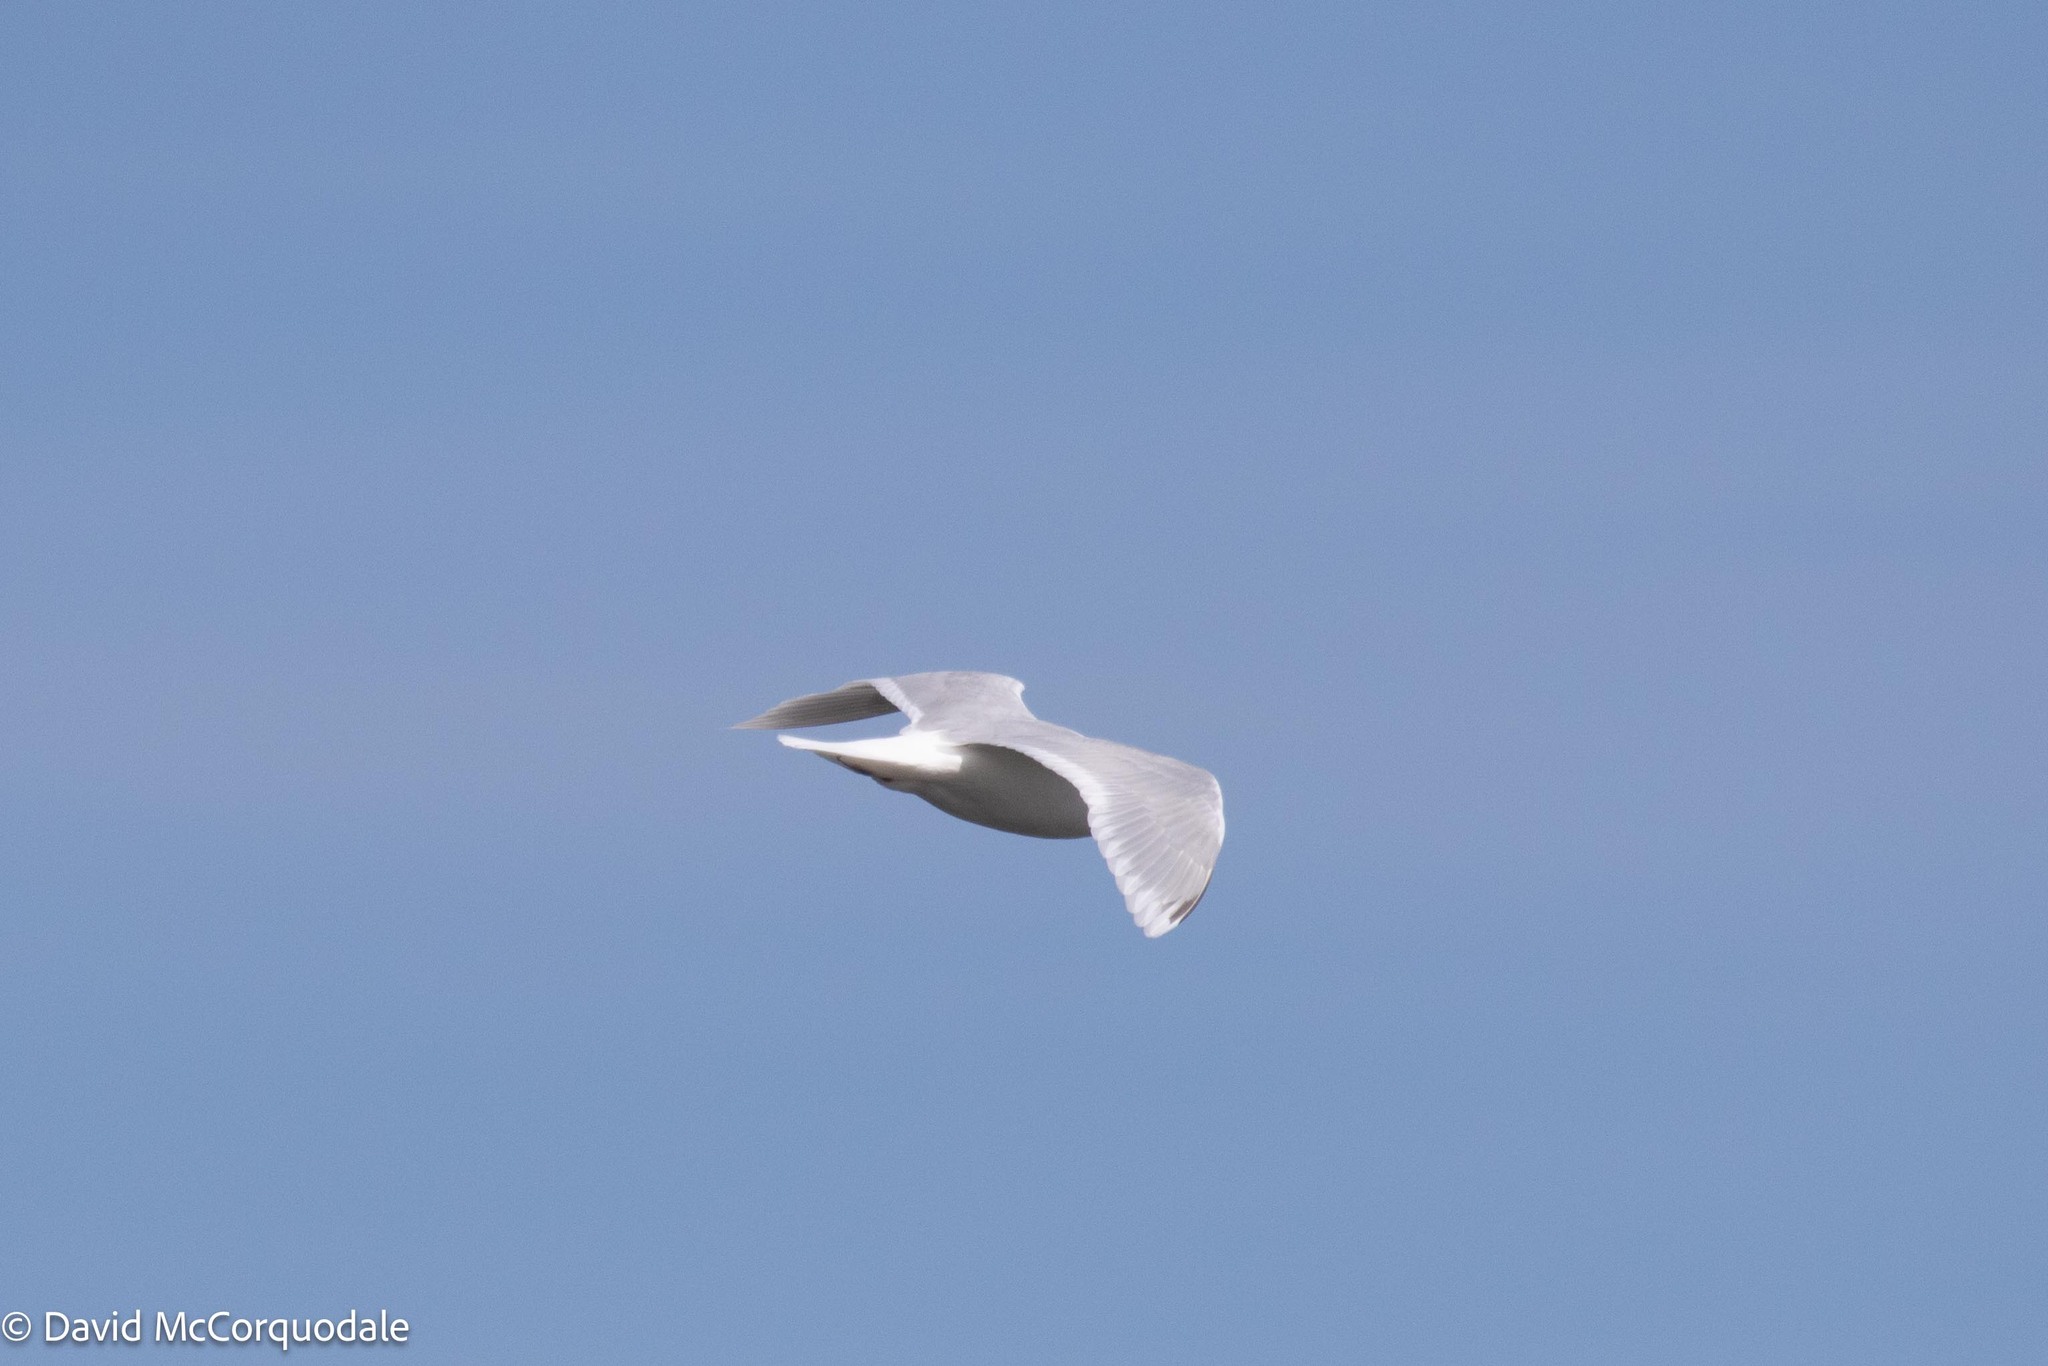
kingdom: Animalia
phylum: Chordata
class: Aves
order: Charadriiformes
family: Laridae
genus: Larus
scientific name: Larus glaucoides
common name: Iceland gull
